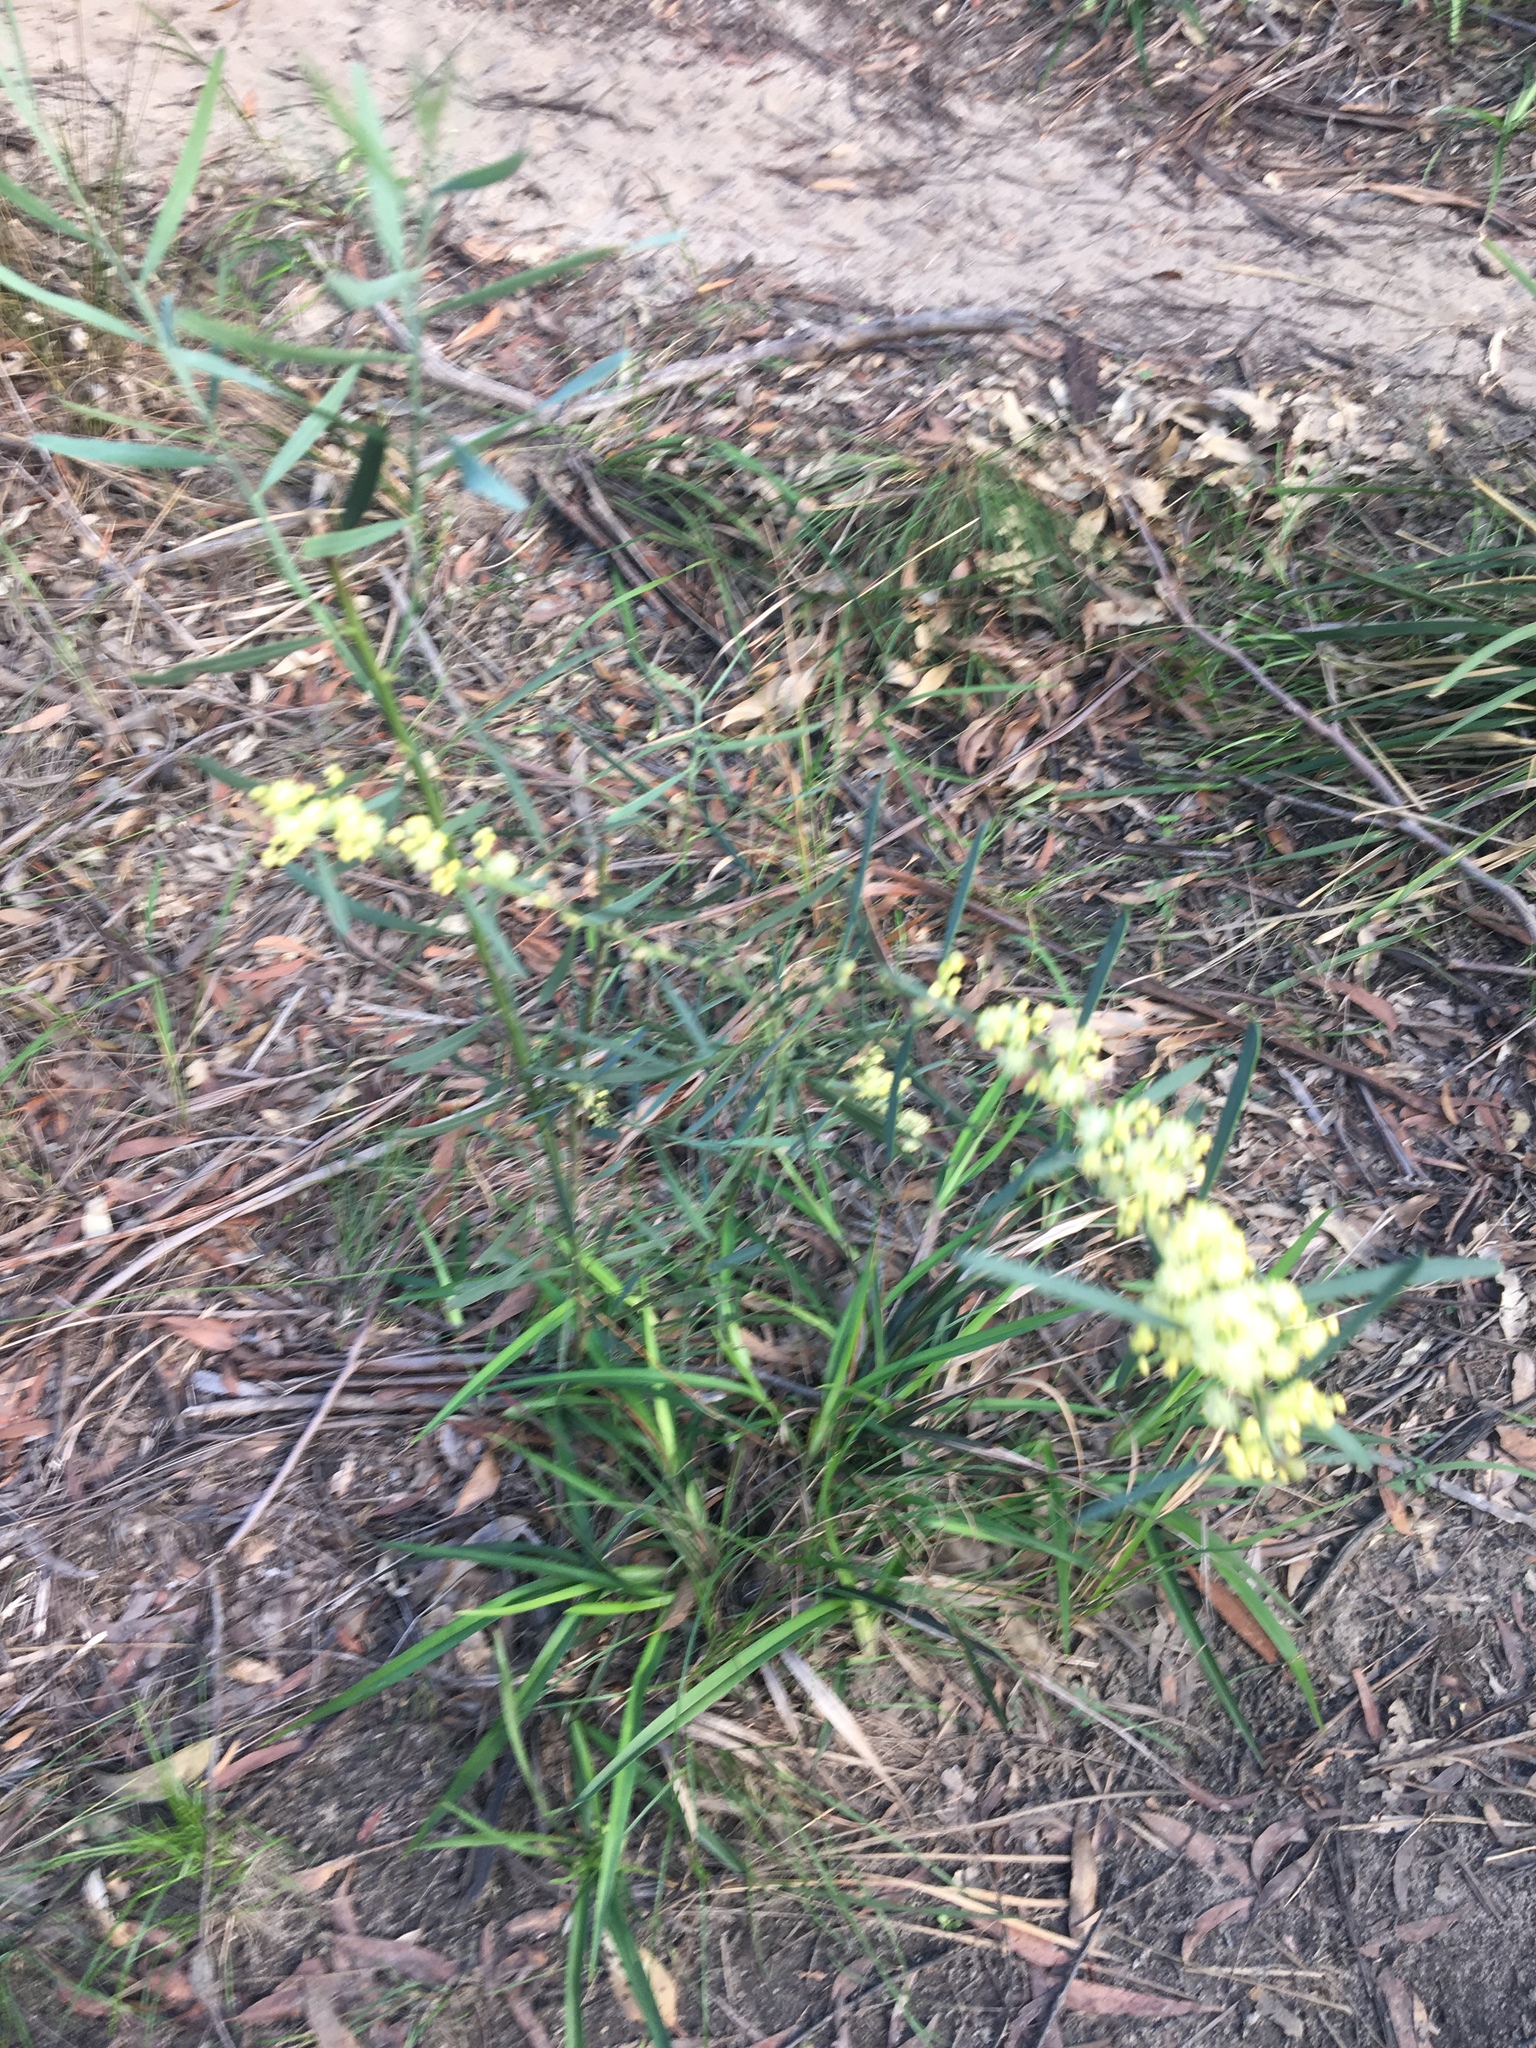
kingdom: Plantae
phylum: Tracheophyta
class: Magnoliopsida
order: Fabales
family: Fabaceae
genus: Acacia
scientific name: Acacia suaveolens
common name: Sweet acacia
